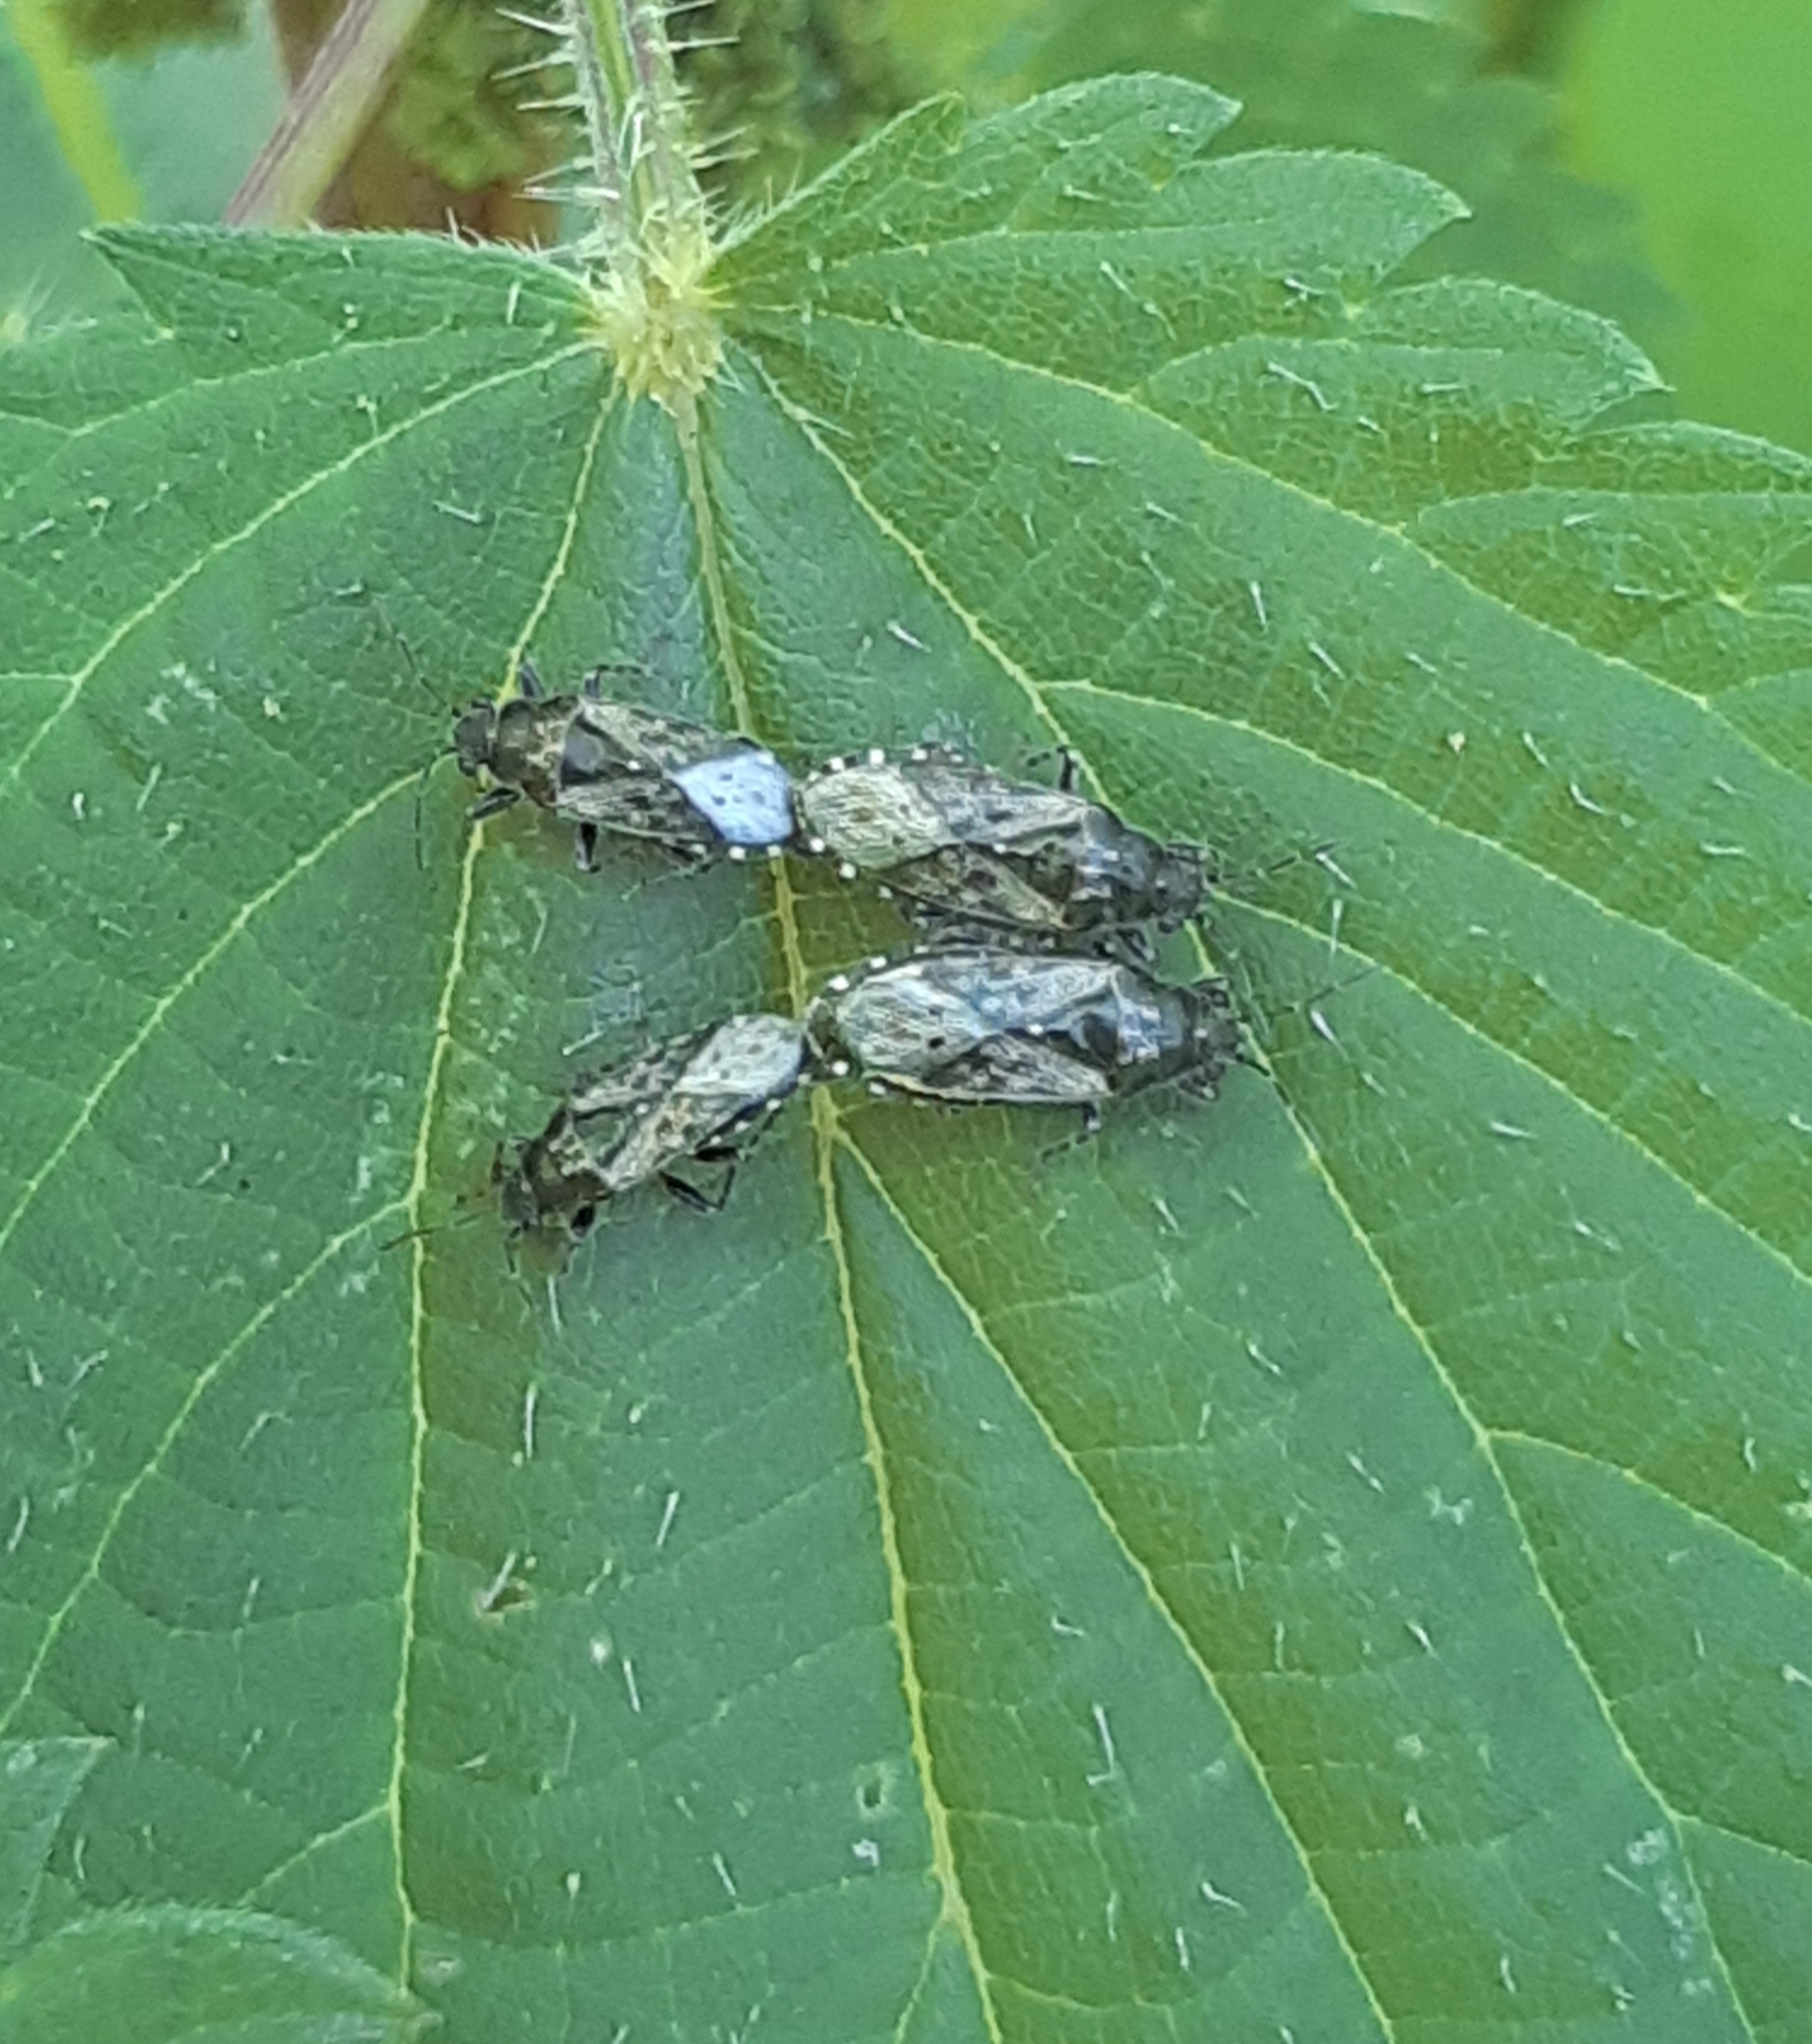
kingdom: Animalia
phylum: Arthropoda
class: Insecta
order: Hemiptera
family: Heterogastridae
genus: Heterogaster
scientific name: Heterogaster urticae
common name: Seed bug
